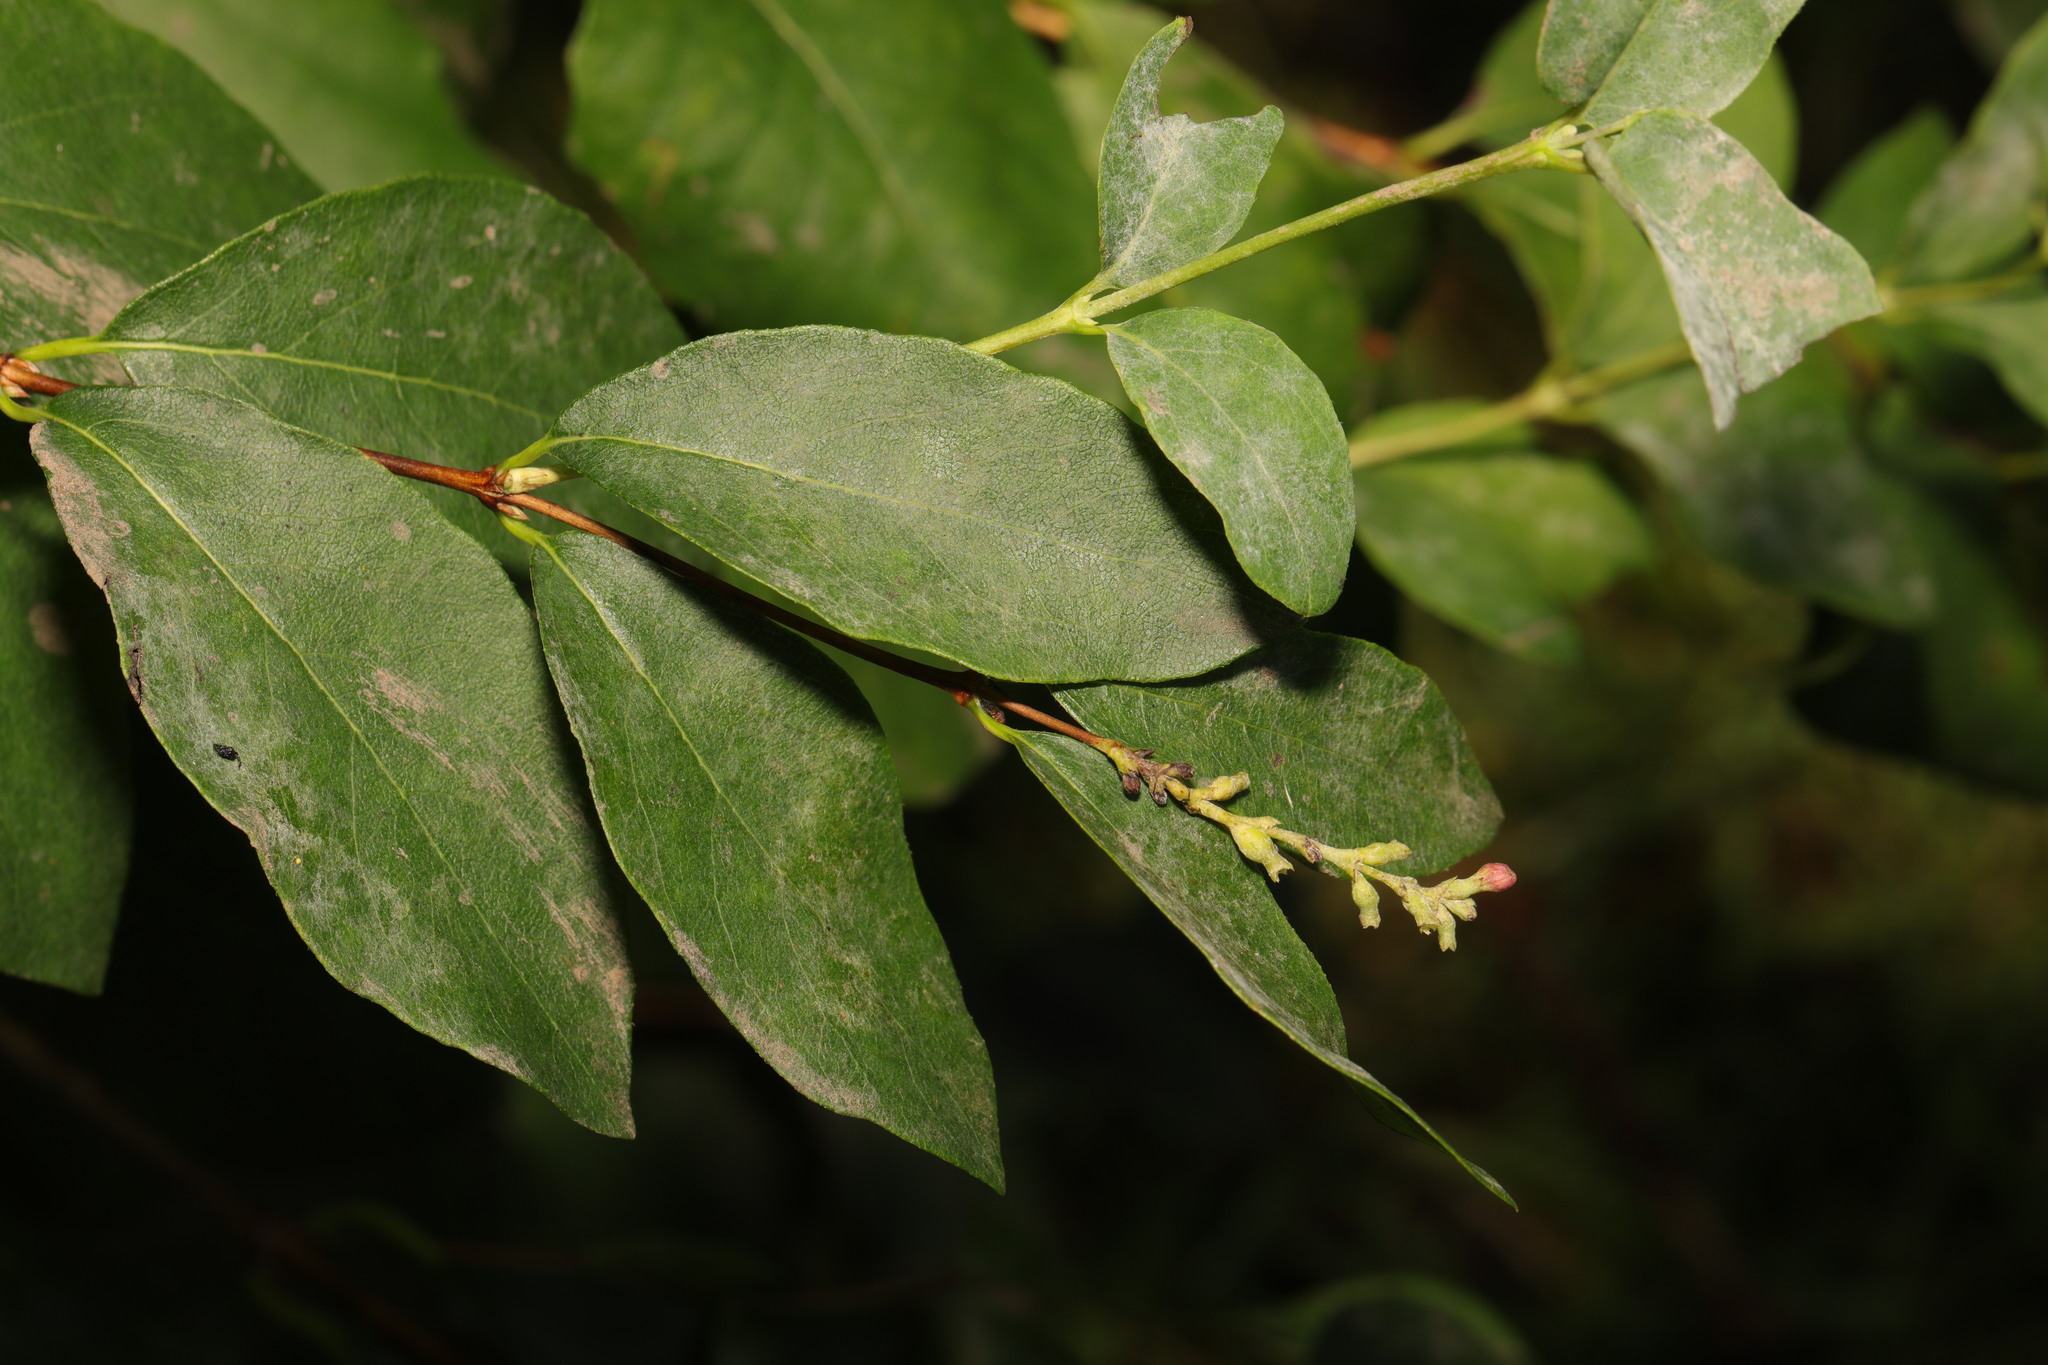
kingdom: Plantae
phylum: Tracheophyta
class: Magnoliopsida
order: Dipsacales
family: Caprifoliaceae
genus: Symphoricarpos
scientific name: Symphoricarpos albus
